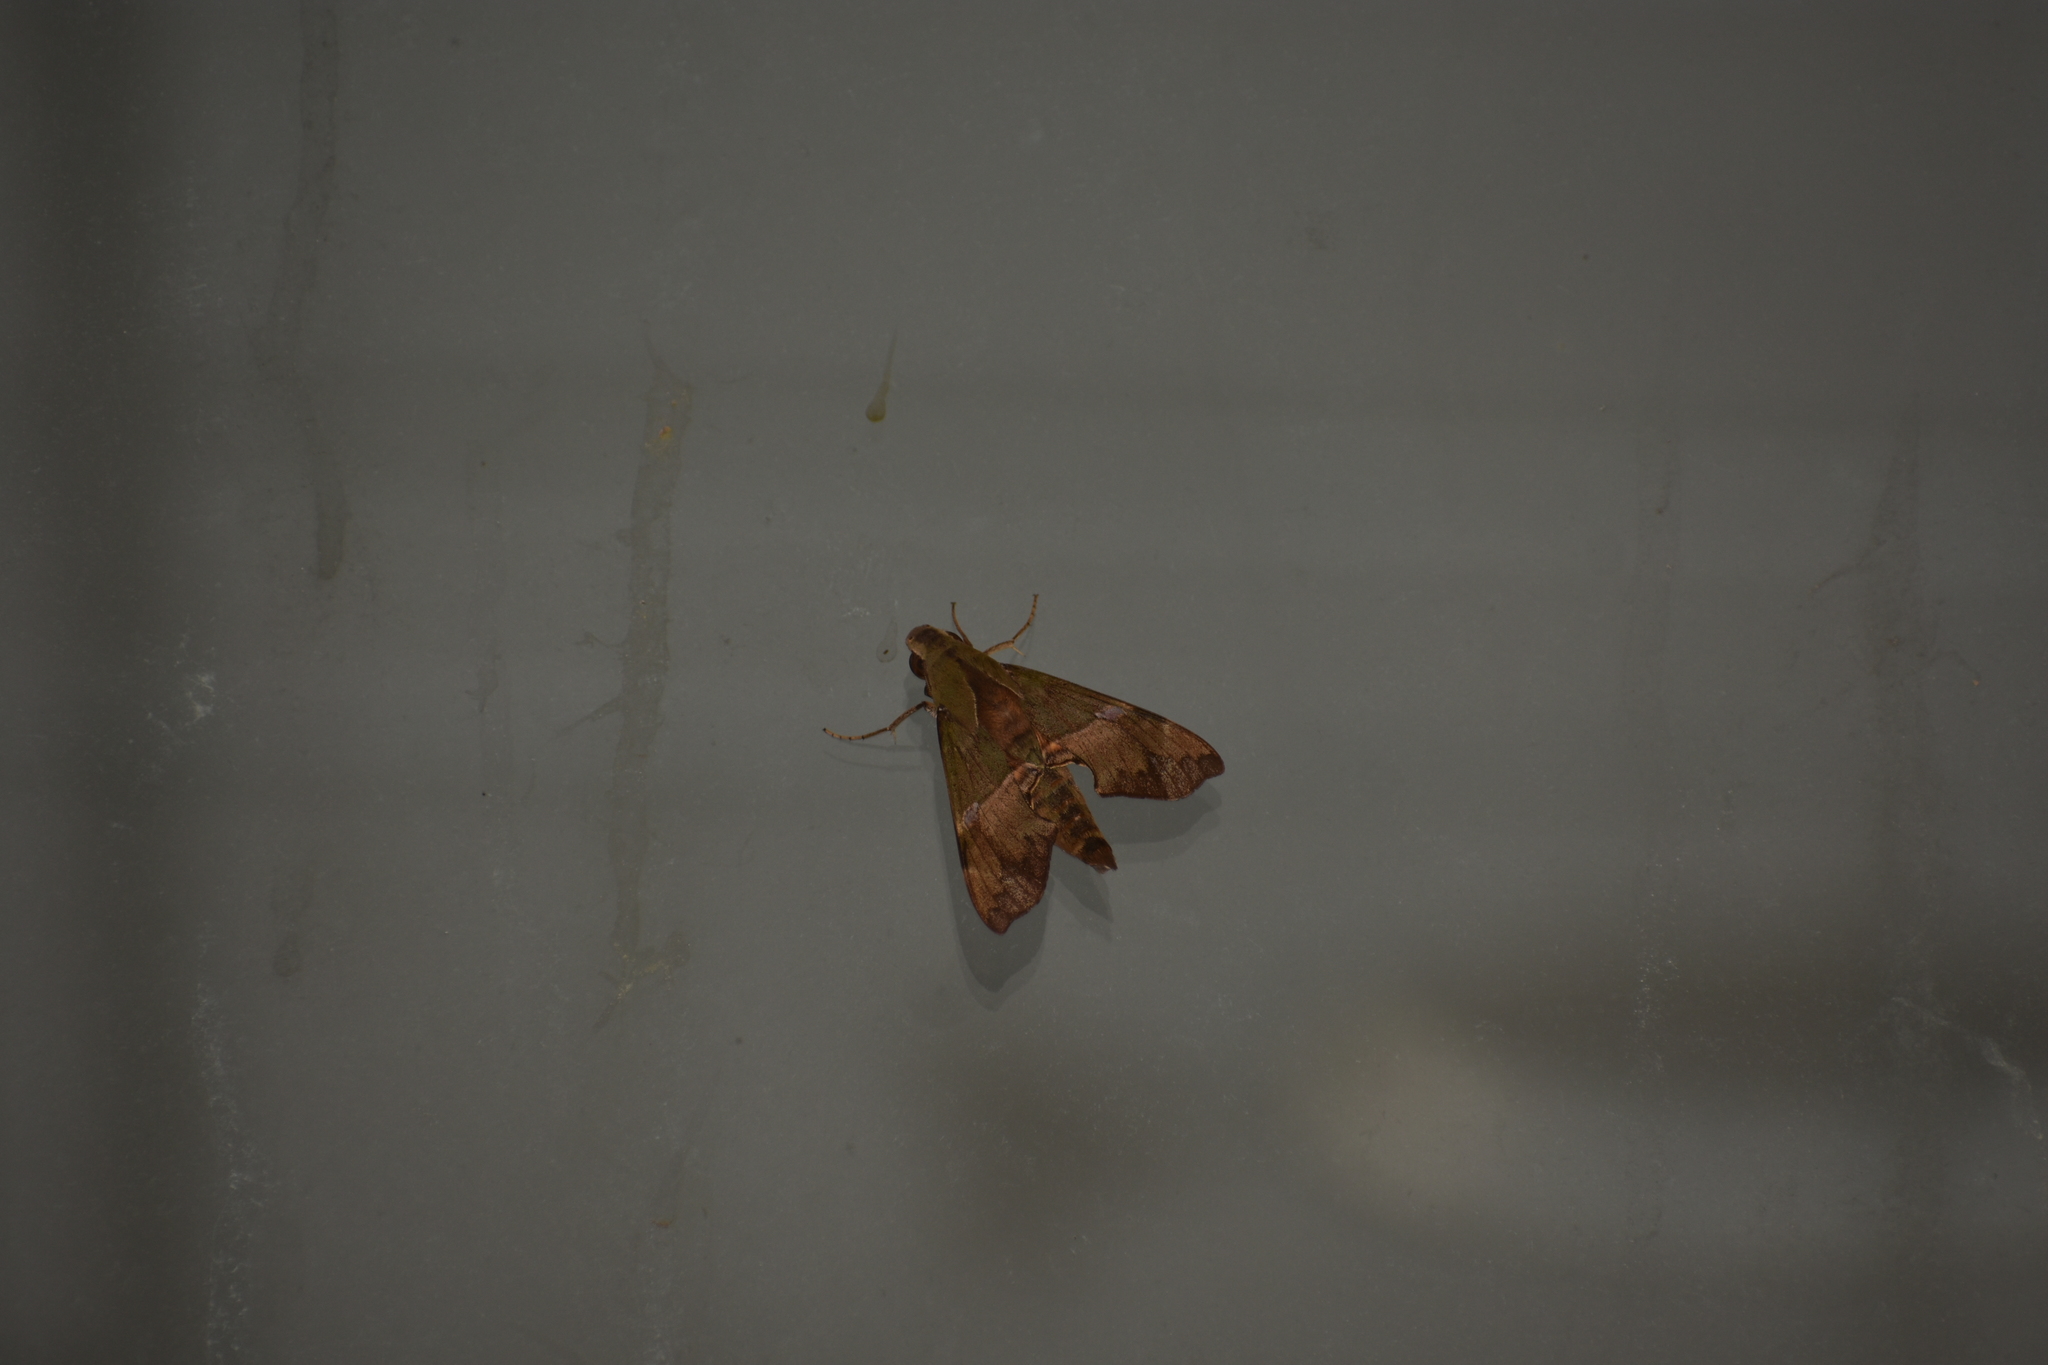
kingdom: Animalia
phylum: Arthropoda
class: Insecta
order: Lepidoptera
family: Sphingidae
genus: Angonyx
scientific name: Angonyx krishna
